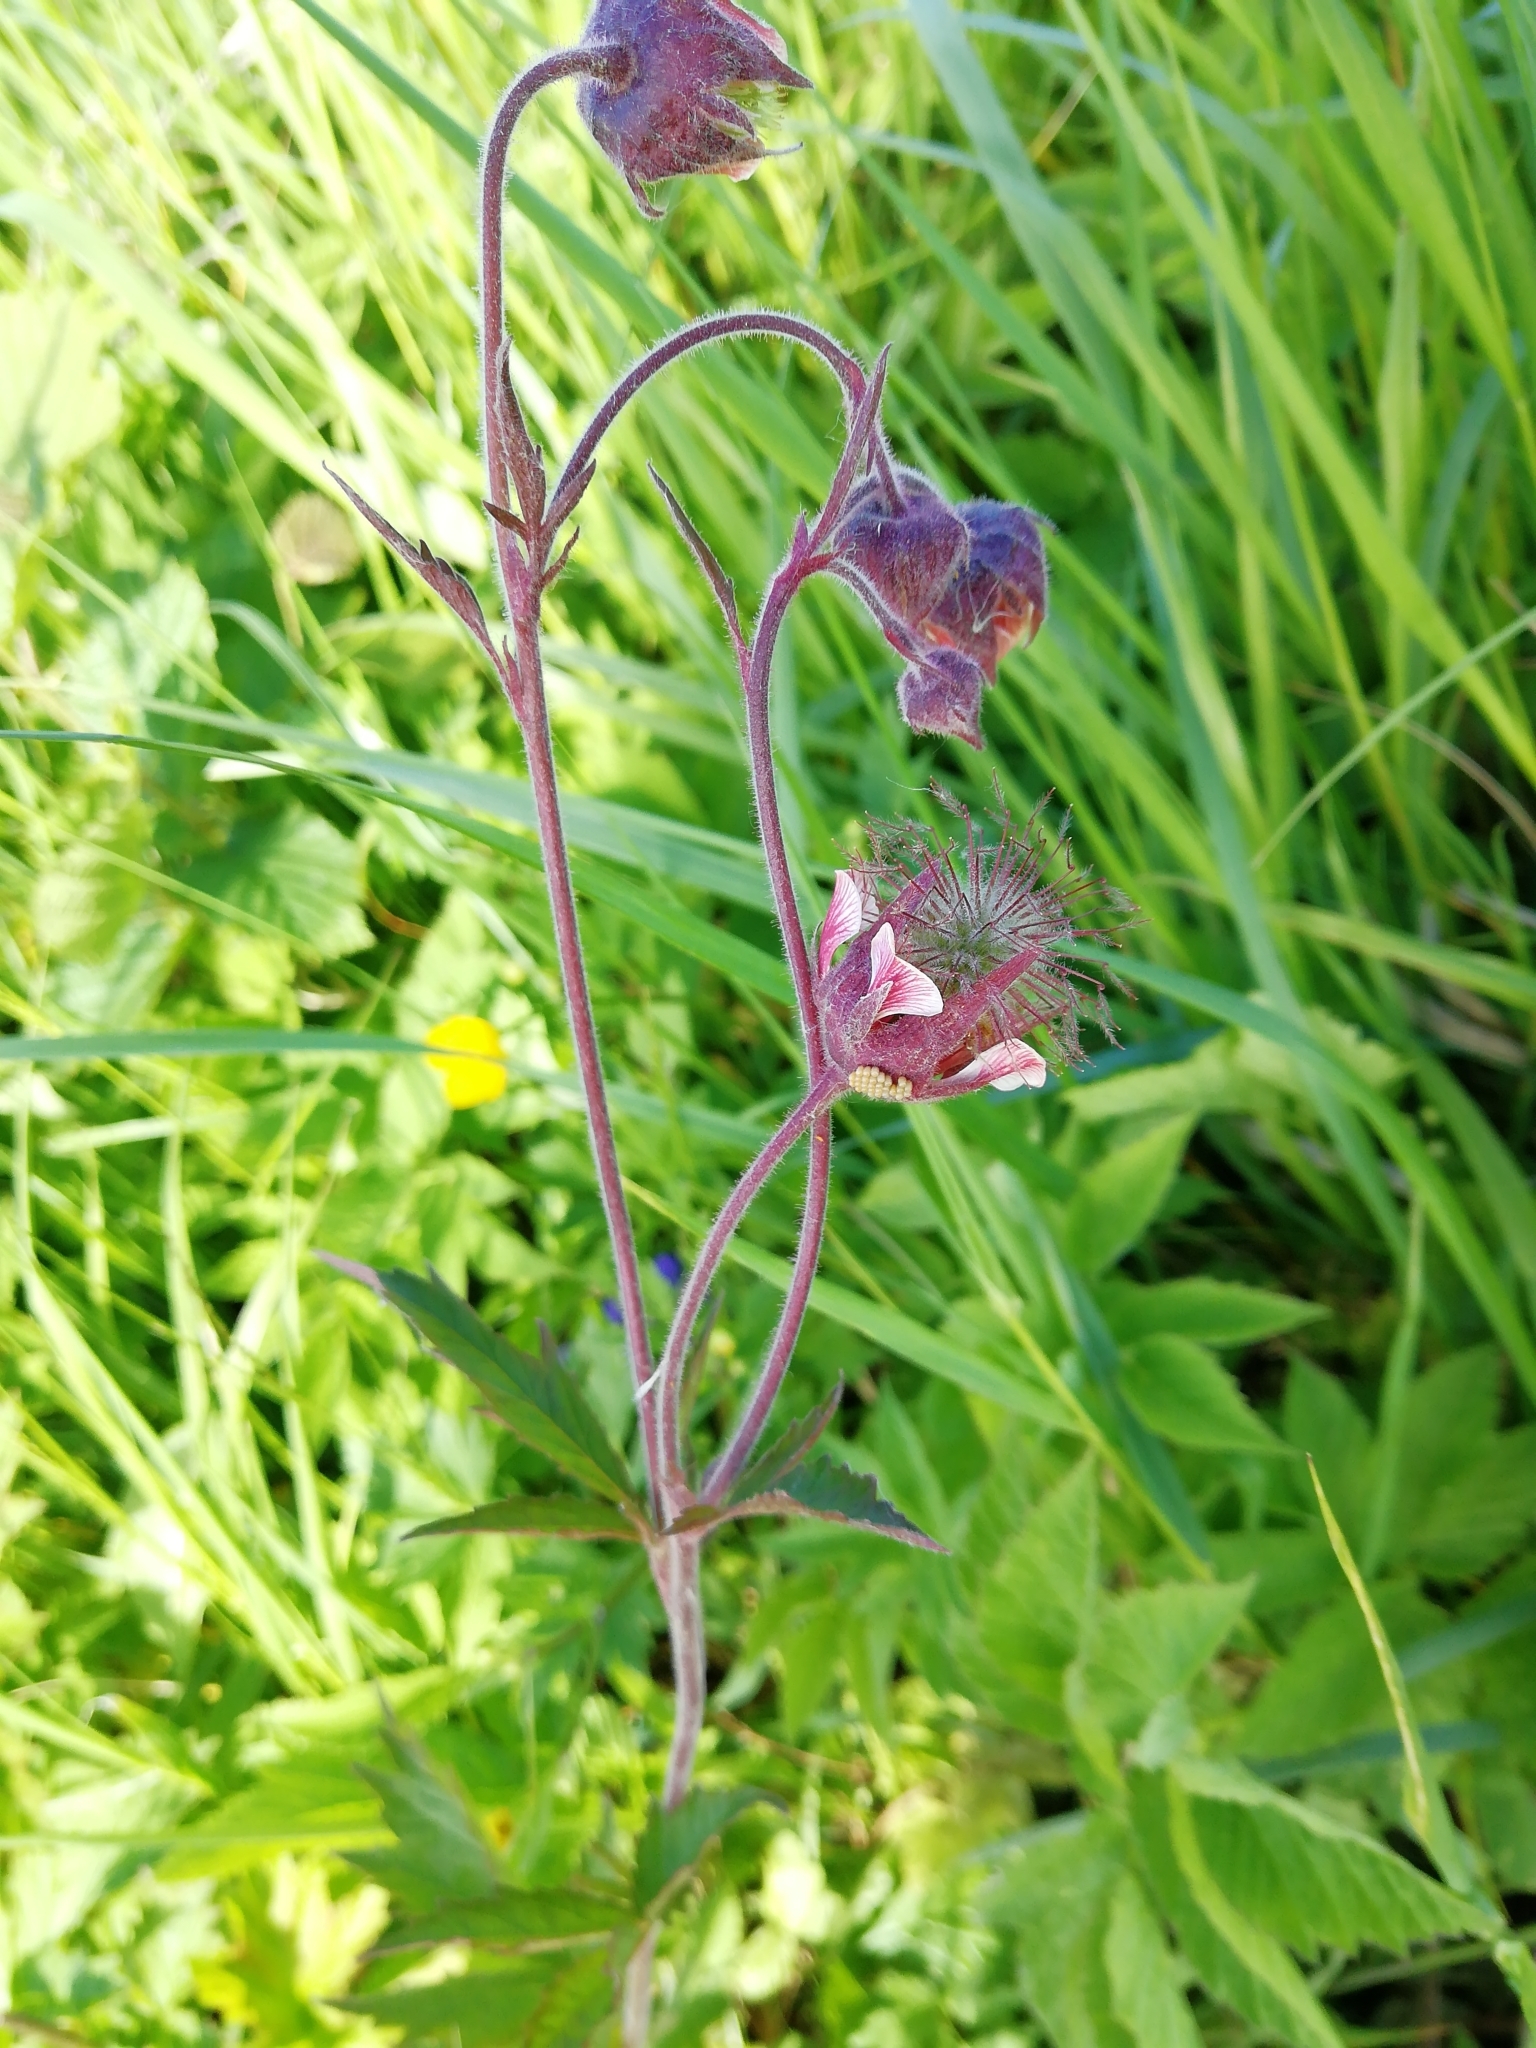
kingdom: Plantae
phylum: Tracheophyta
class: Magnoliopsida
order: Rosales
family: Rosaceae
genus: Geum
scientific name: Geum rivale
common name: Water avens
